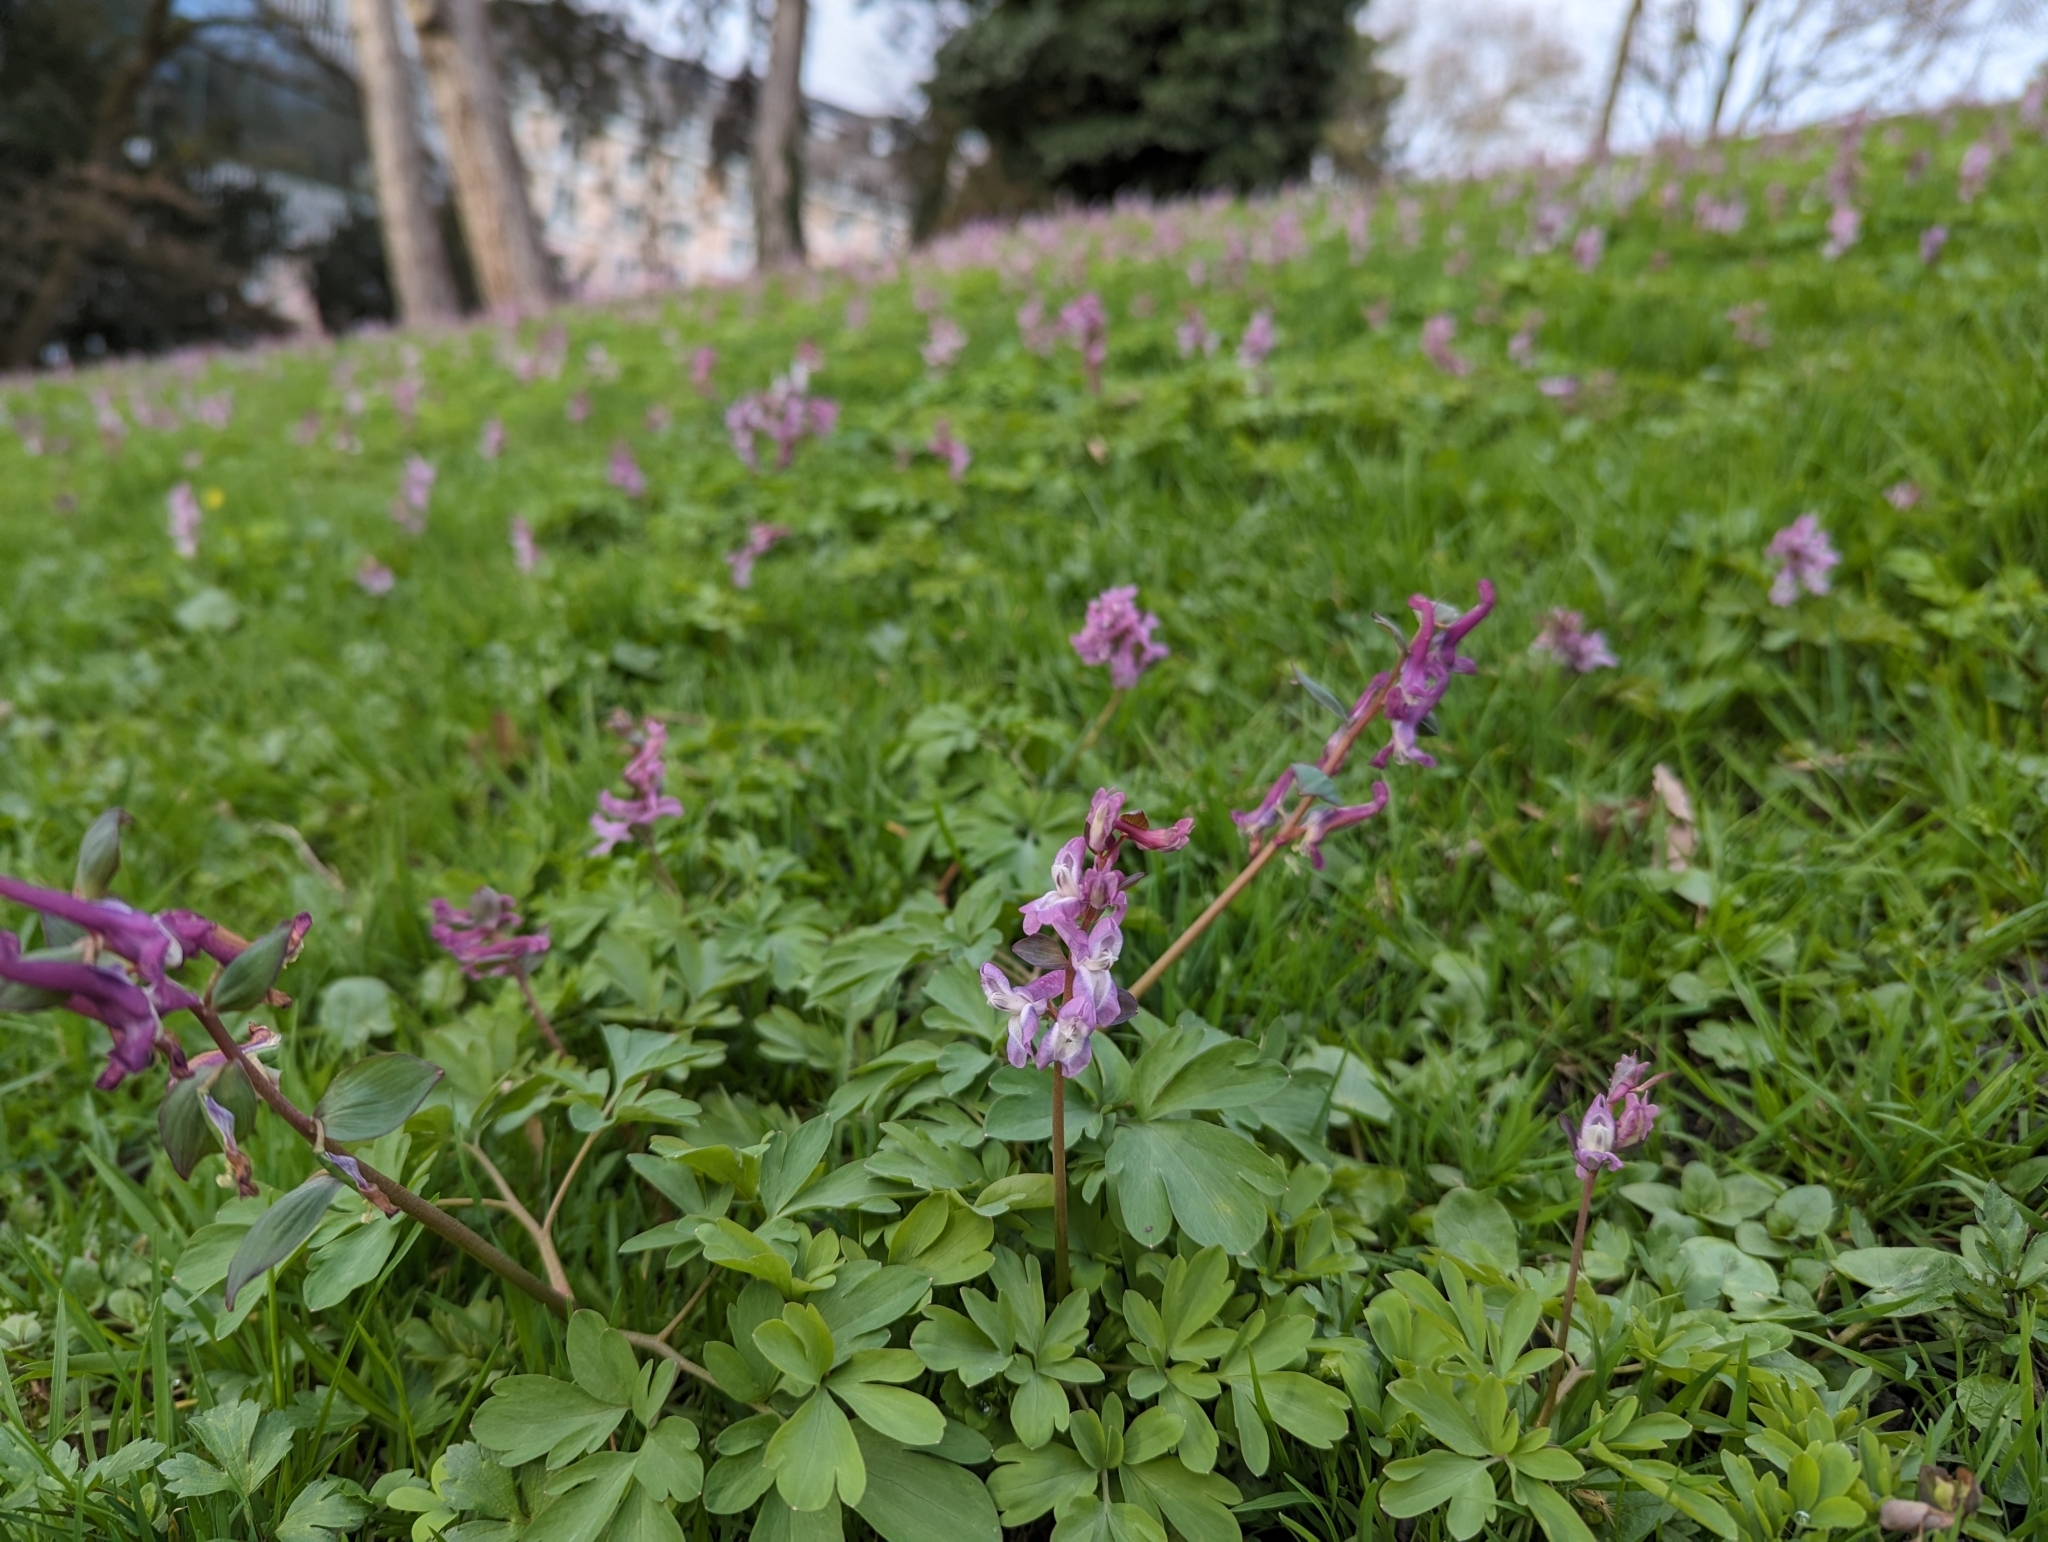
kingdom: Plantae
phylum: Tracheophyta
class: Magnoliopsida
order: Ranunculales
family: Papaveraceae
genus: Corydalis
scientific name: Corydalis cava
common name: Hollowroot
